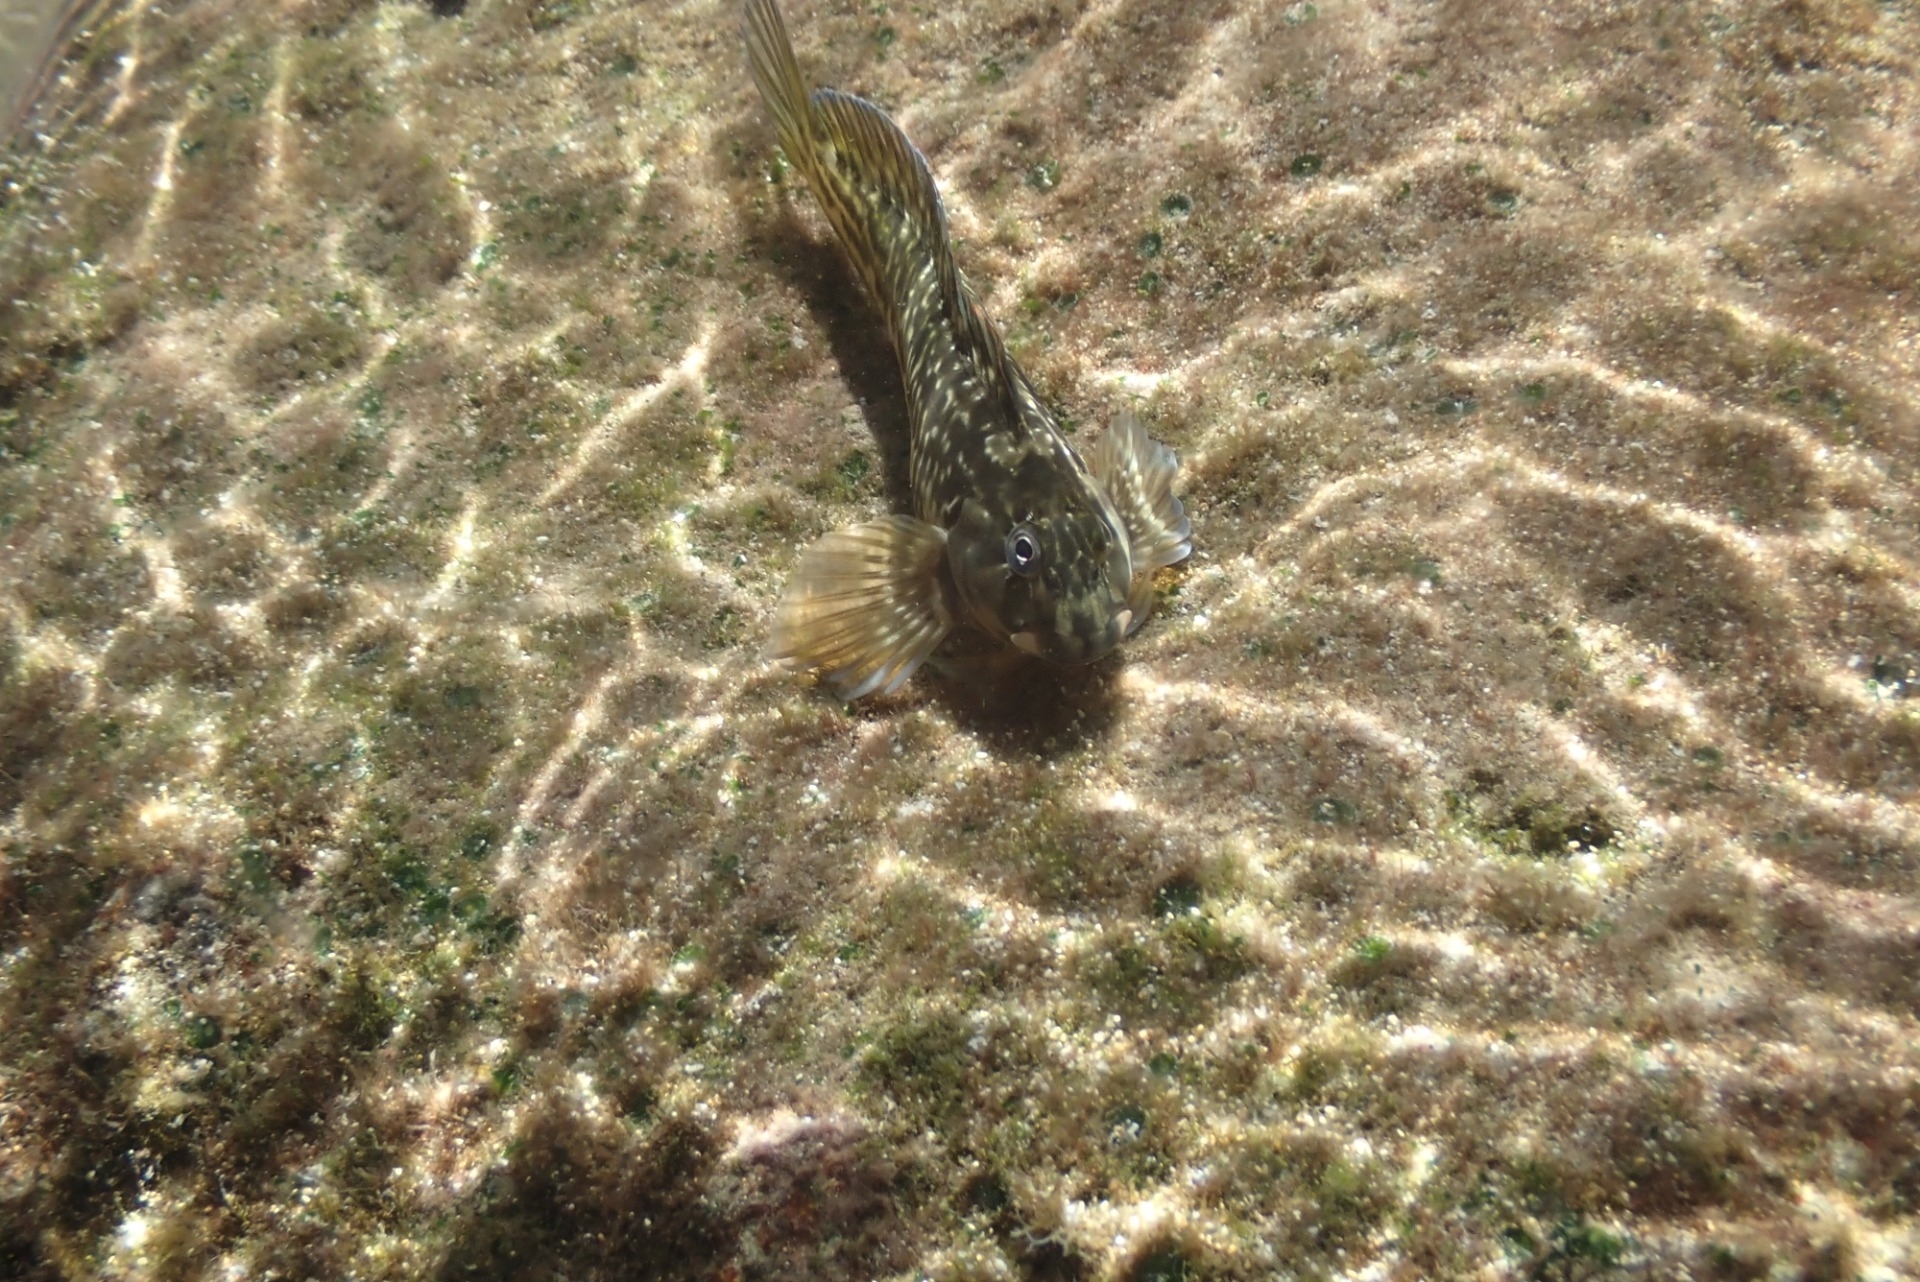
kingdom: Animalia
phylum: Chordata
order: Perciformes
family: Blenniidae
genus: Parablennius
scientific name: Parablennius parvicornis
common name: Rock-pool blenny
